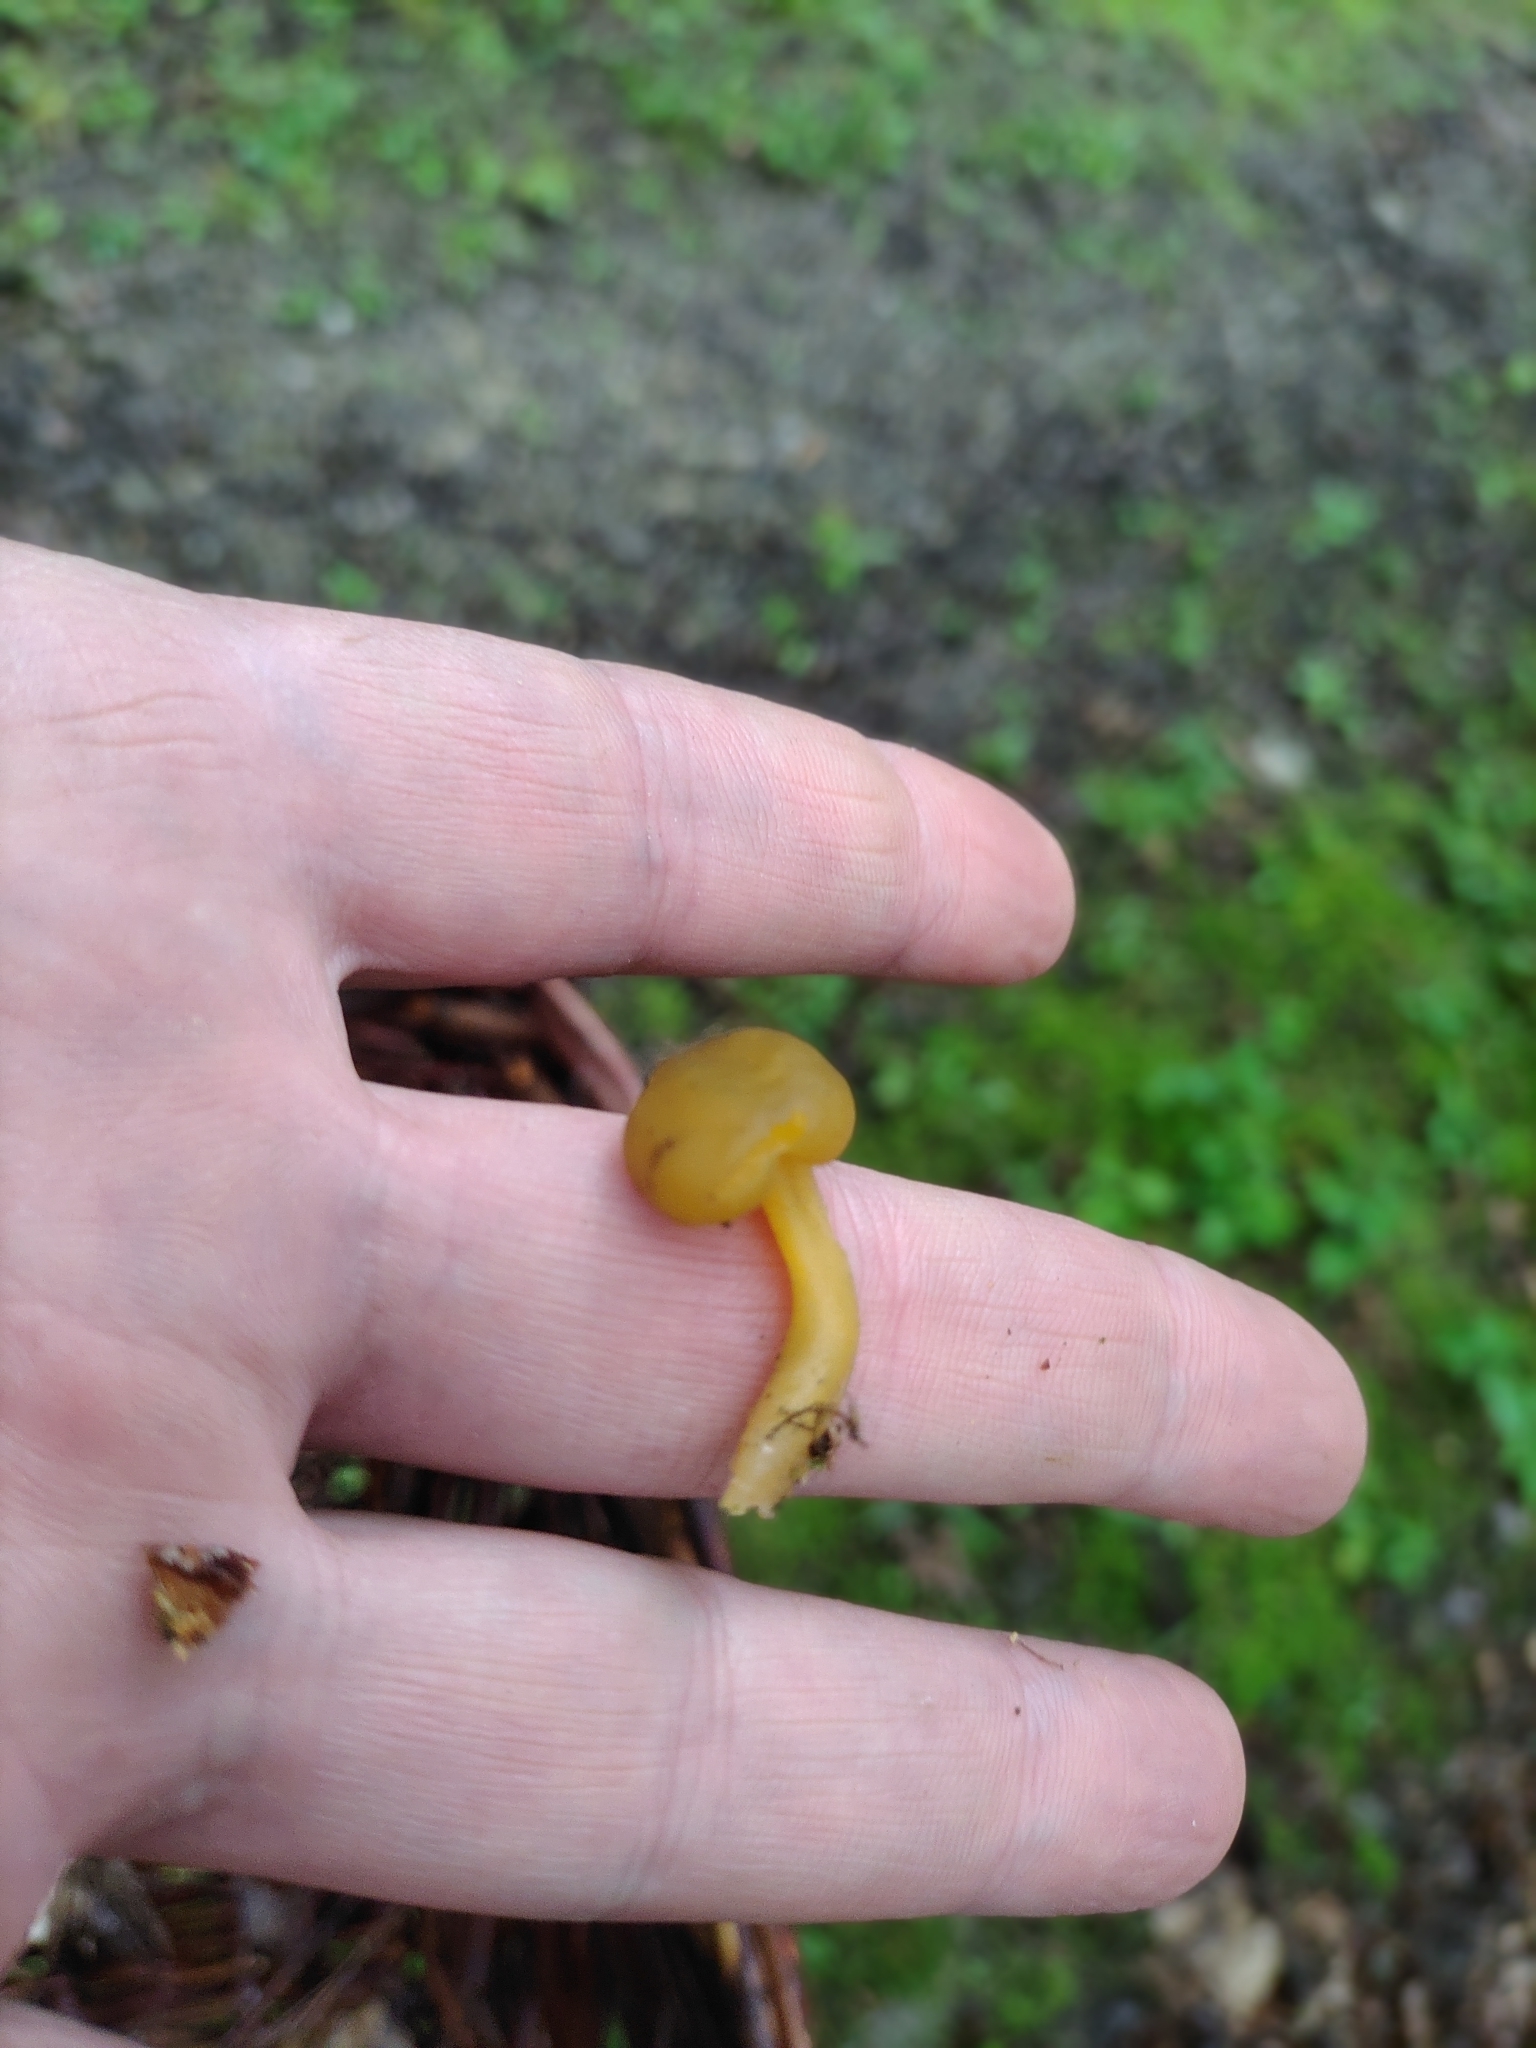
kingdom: Fungi
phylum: Ascomycota
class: Leotiomycetes
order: Leotiales
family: Leotiaceae
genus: Leotia
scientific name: Leotia lubrica
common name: Jellybaby
